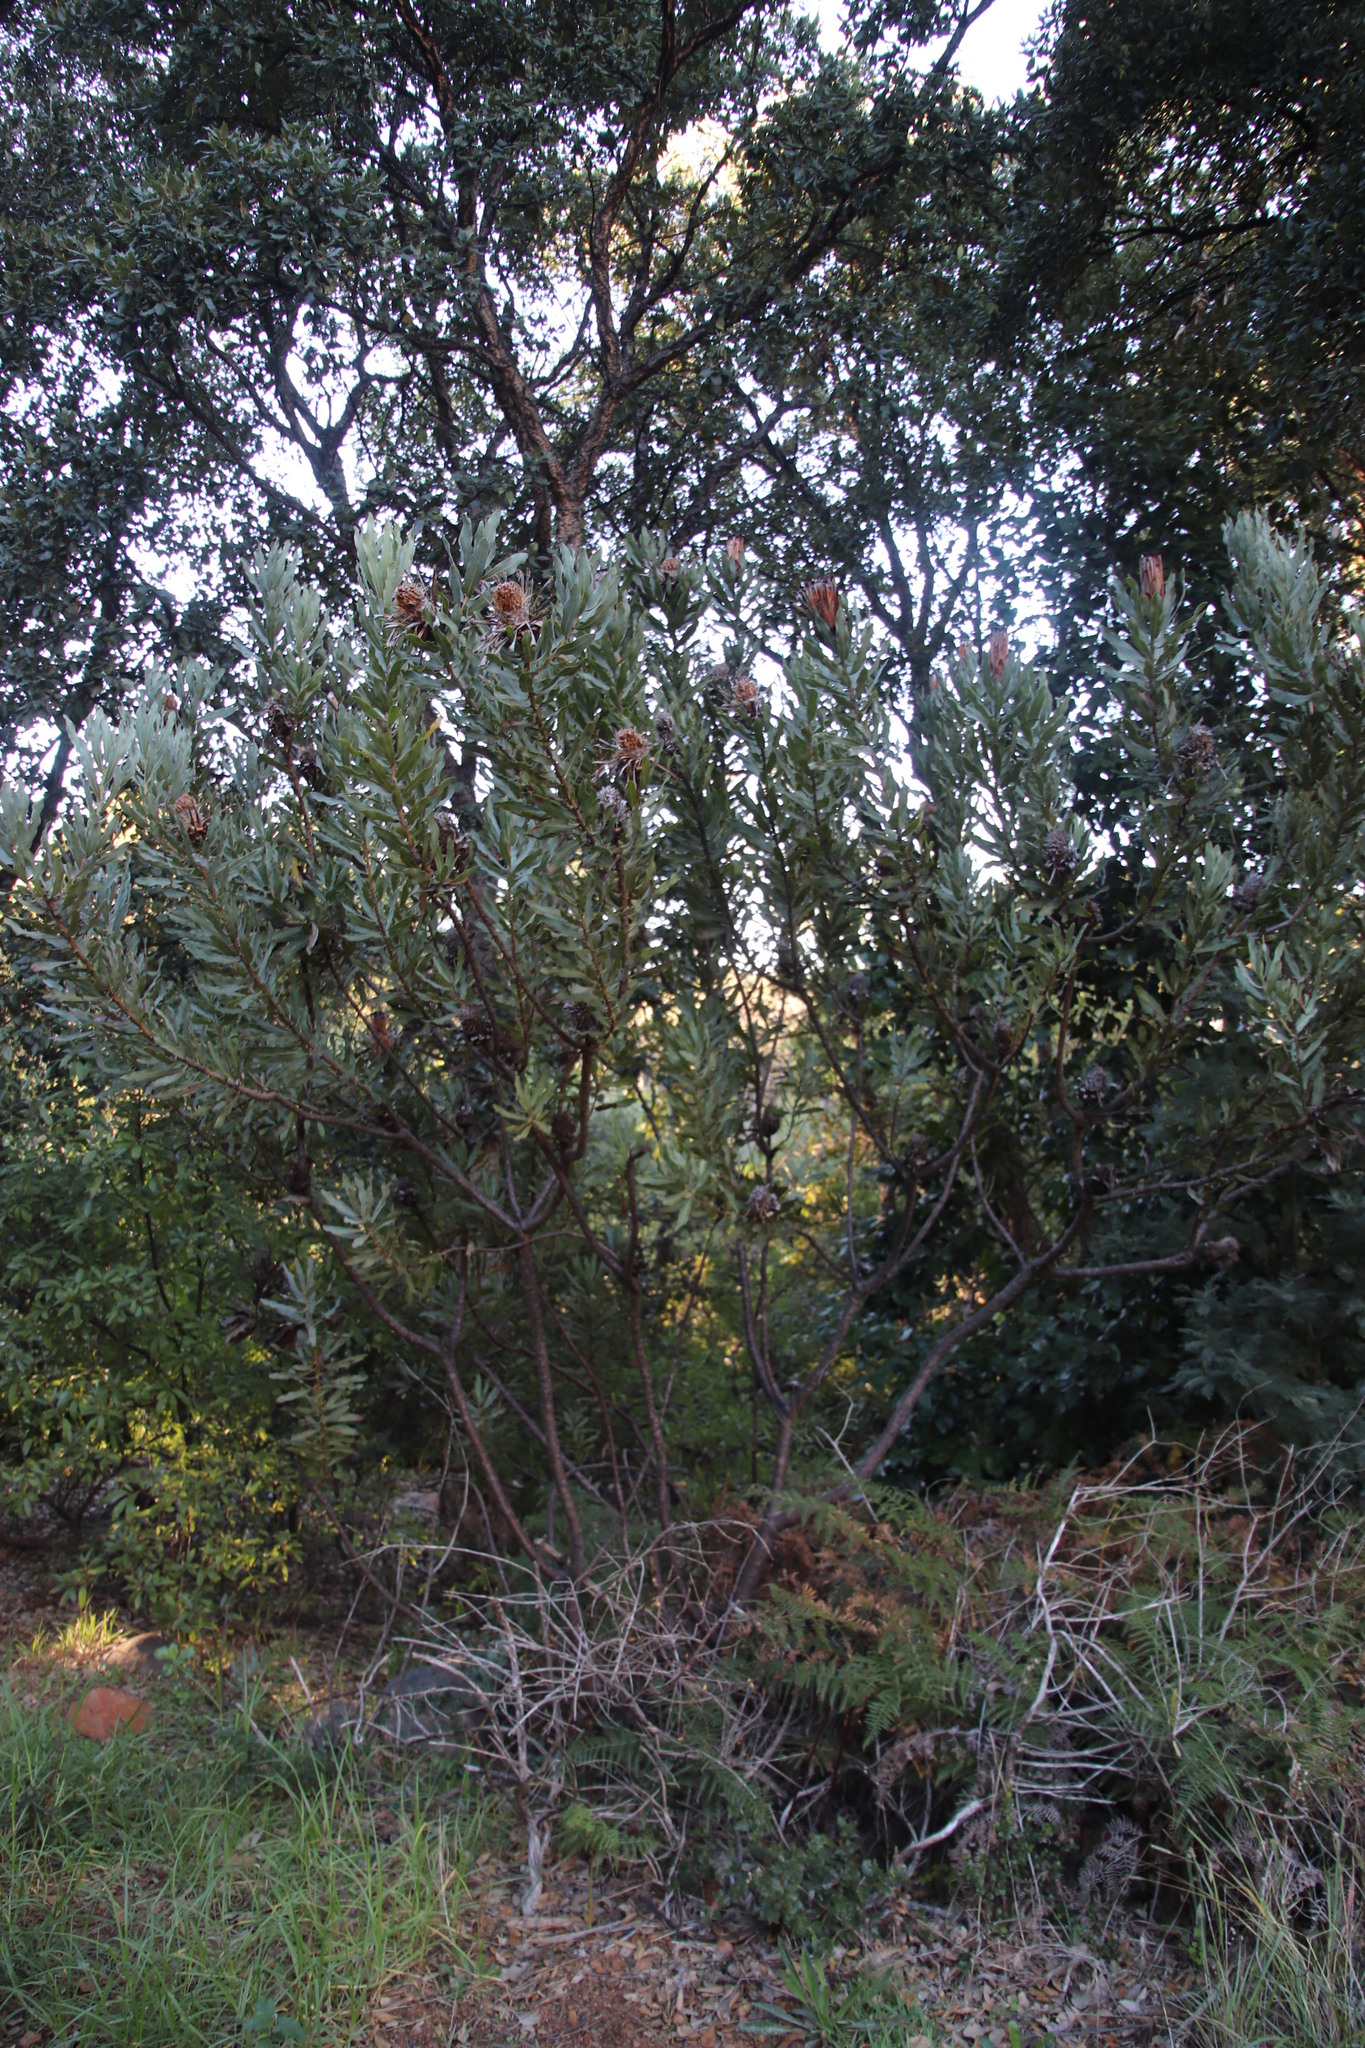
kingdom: Plantae
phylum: Tracheophyta
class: Magnoliopsida
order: Proteales
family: Proteaceae
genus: Protea
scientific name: Protea
